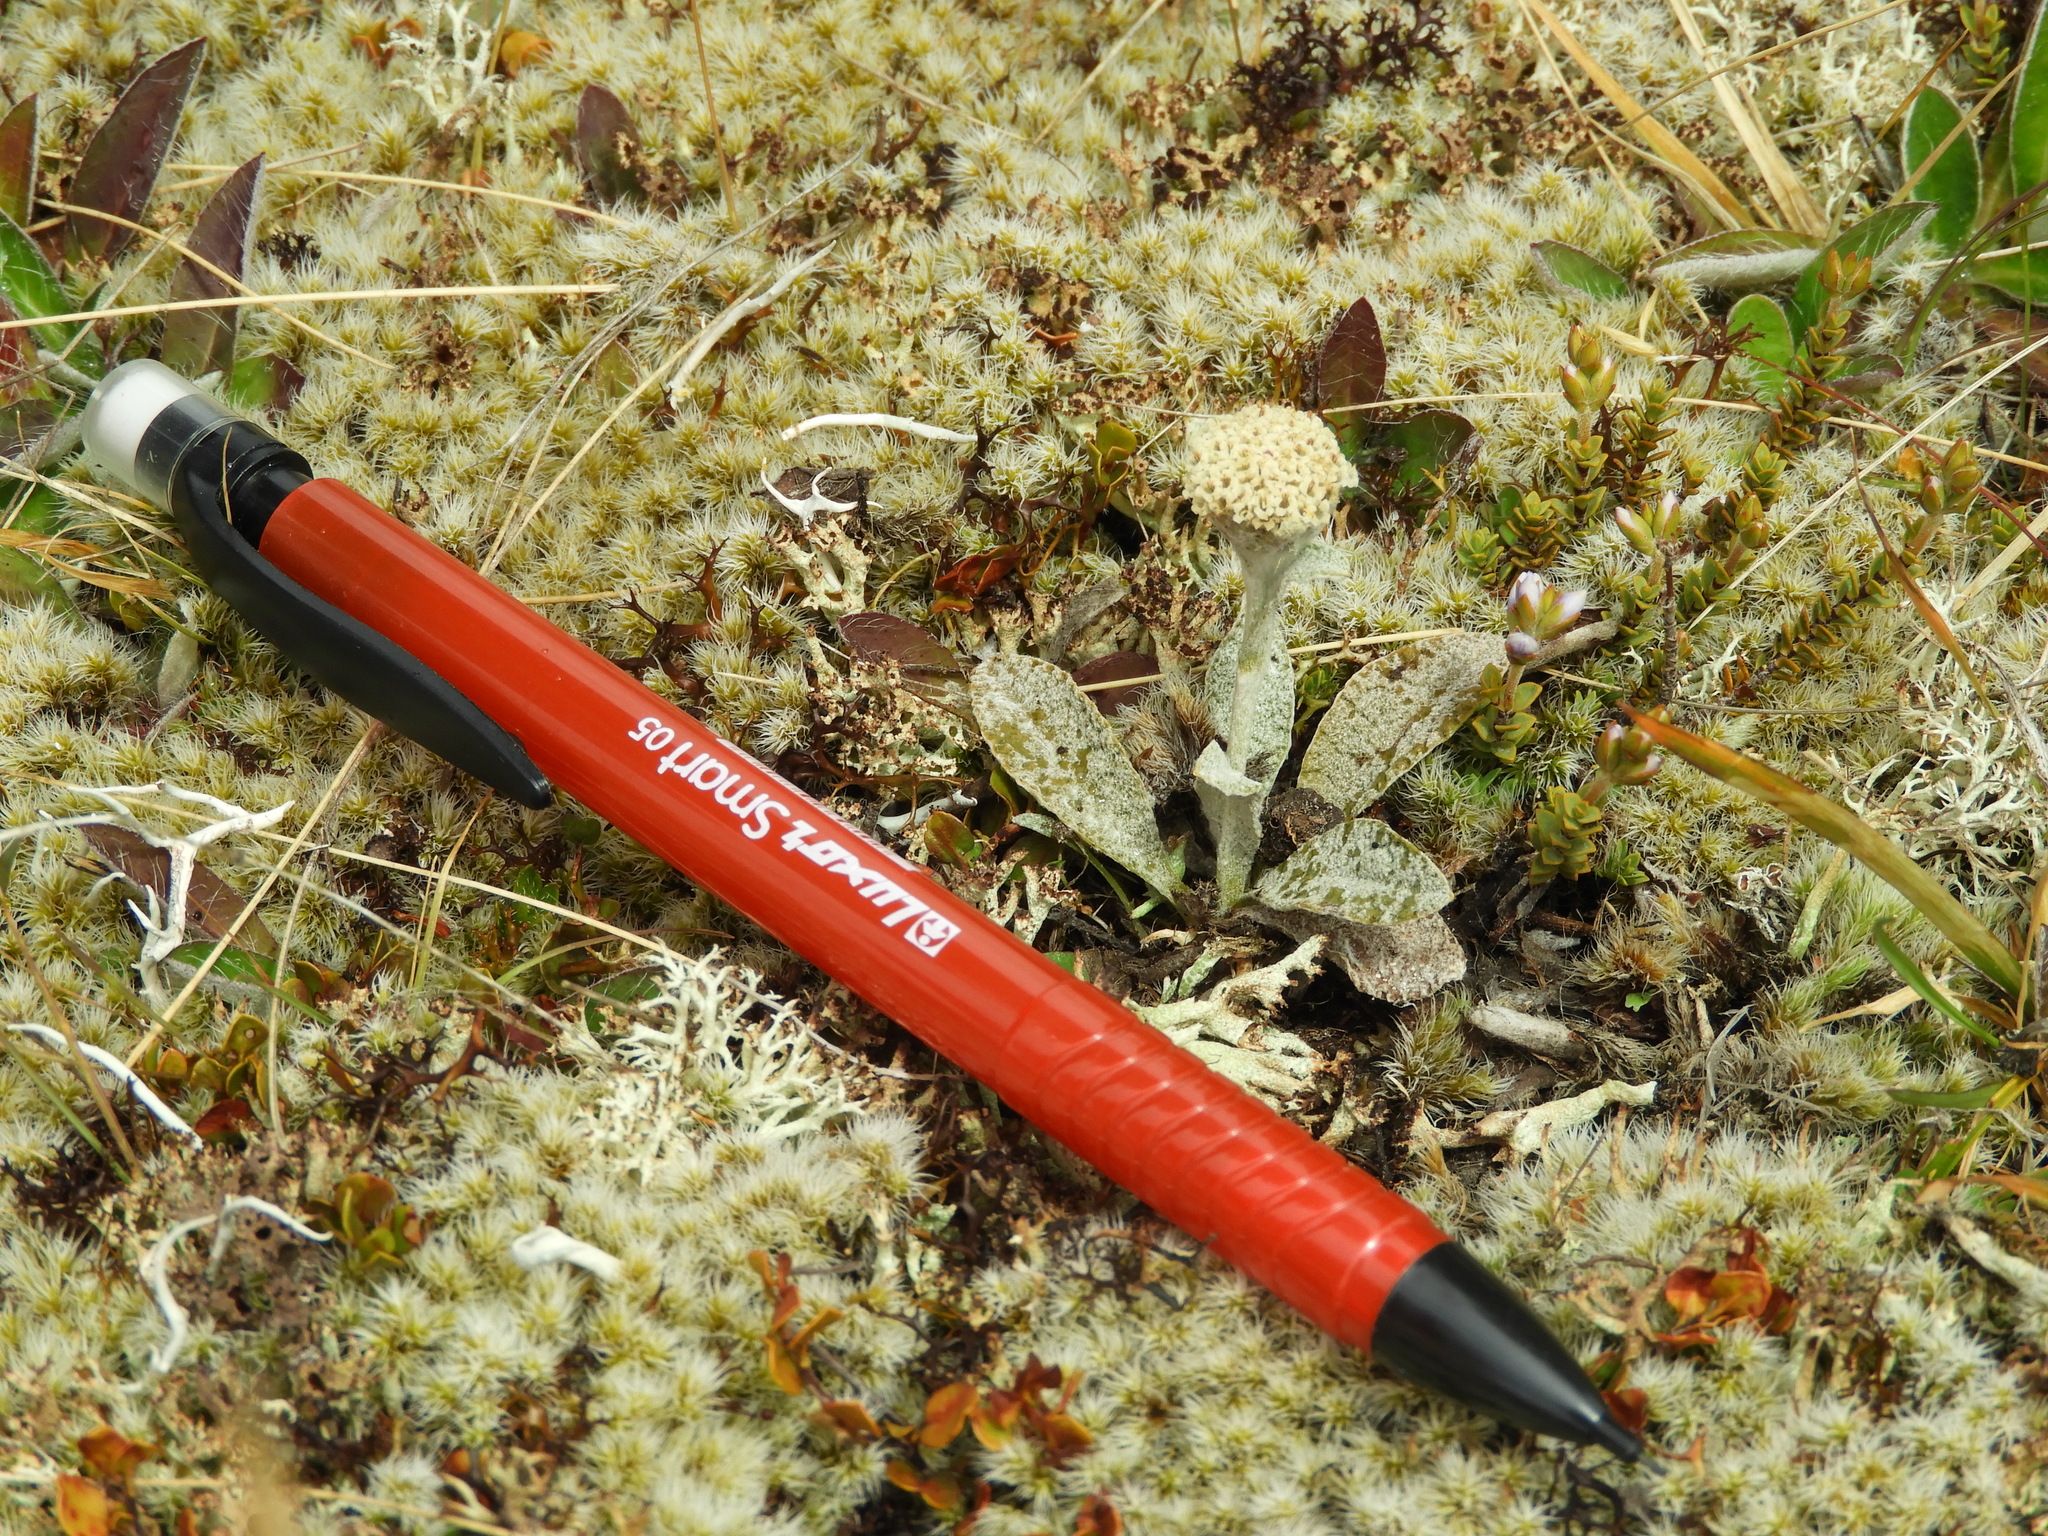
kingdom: Plantae
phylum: Tracheophyta
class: Magnoliopsida
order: Asterales
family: Asteraceae
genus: Craspedia
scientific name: Craspedia
